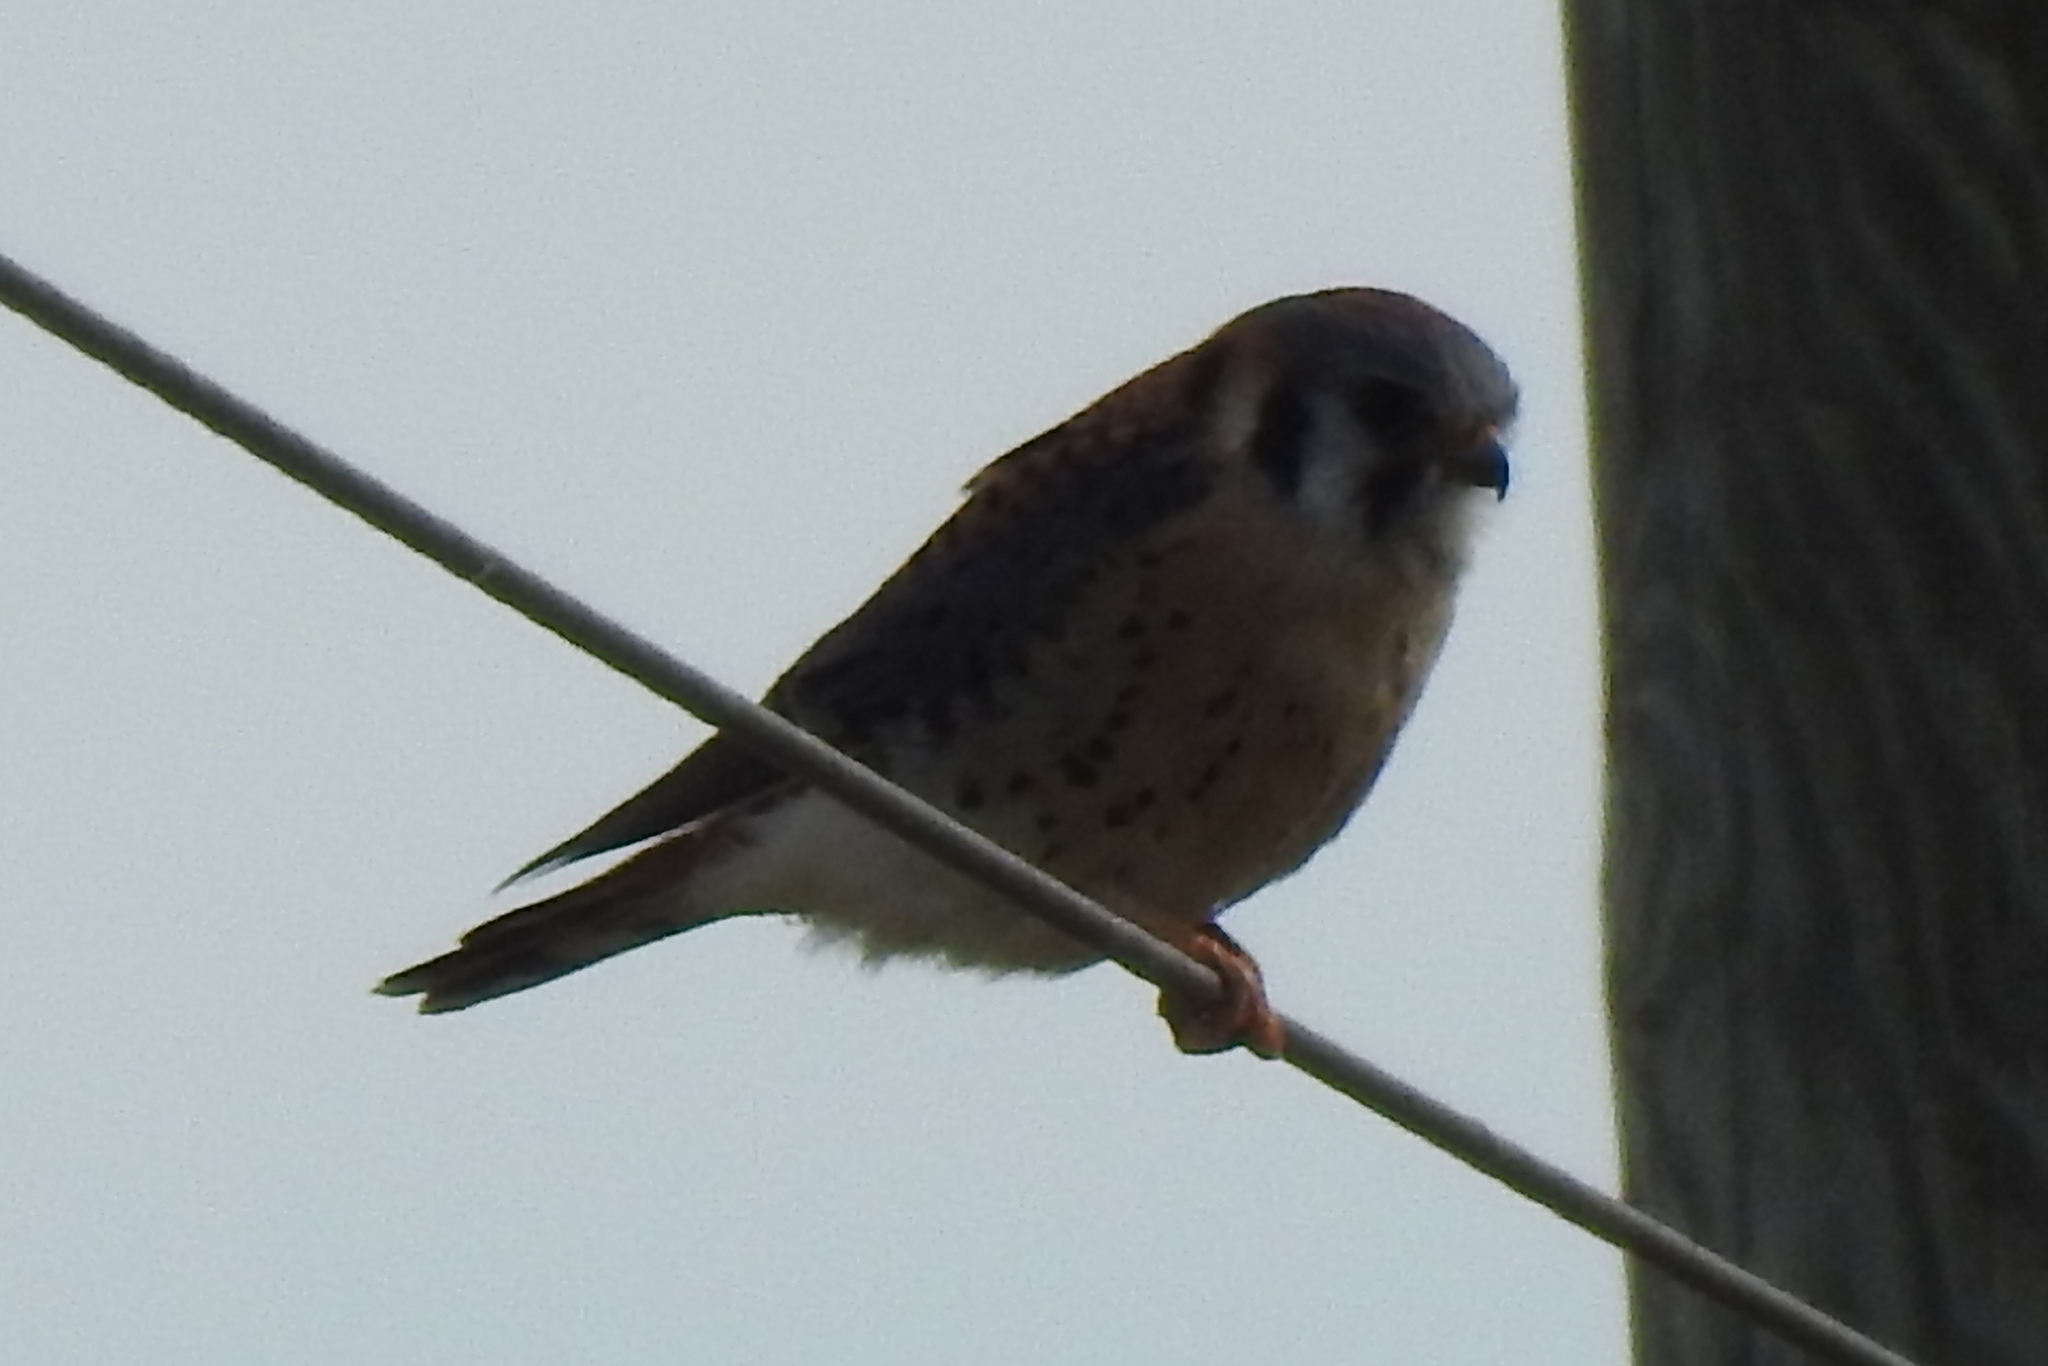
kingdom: Animalia
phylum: Chordata
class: Aves
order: Falconiformes
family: Falconidae
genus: Falco
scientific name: Falco sparverius
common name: American kestrel
